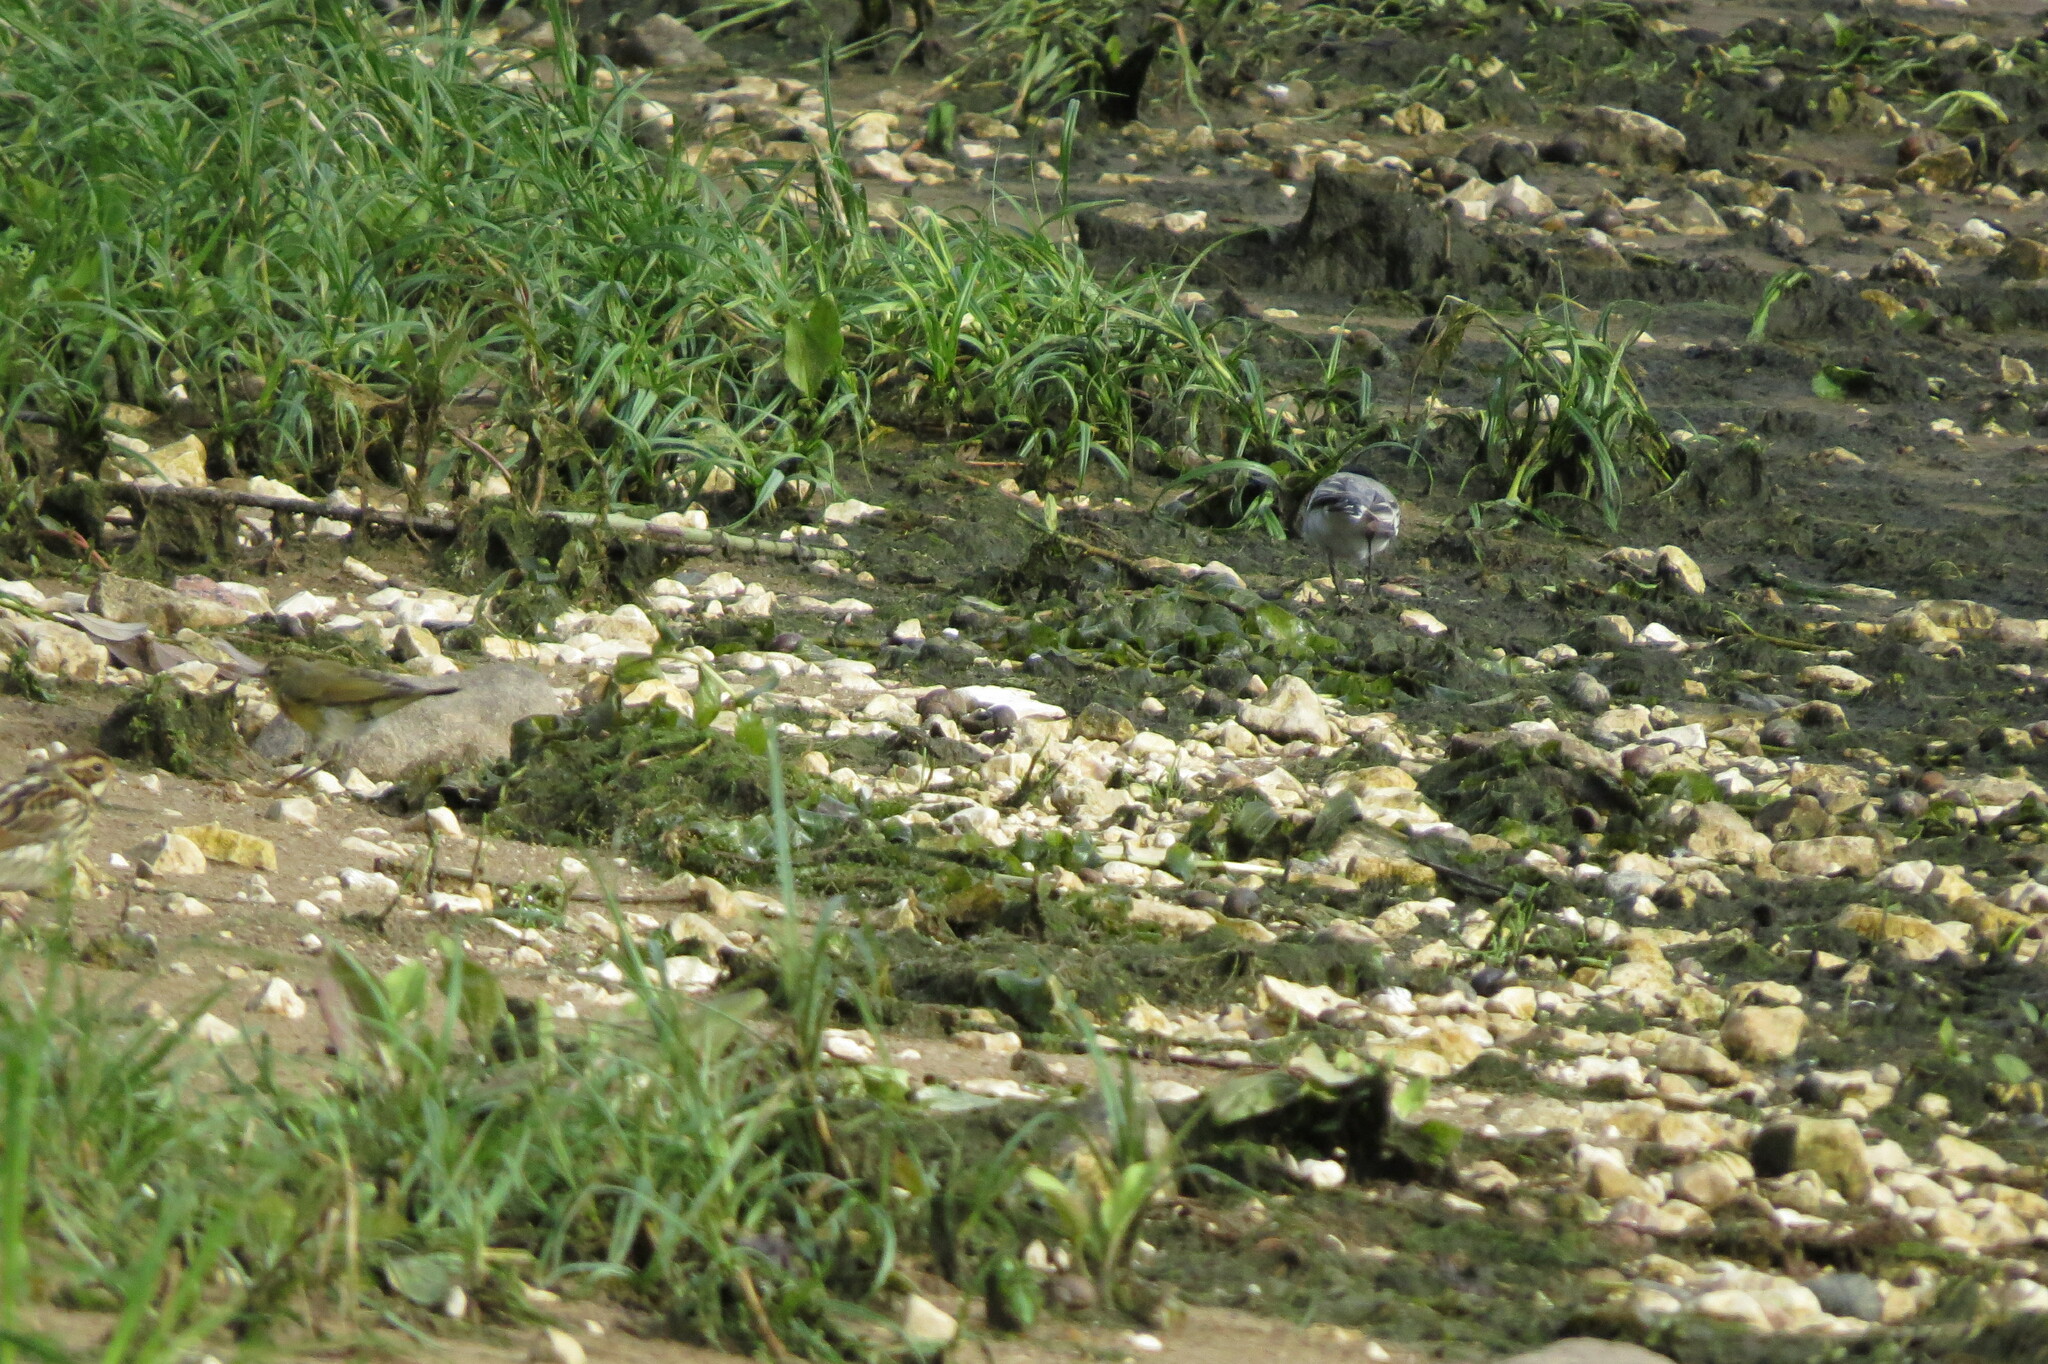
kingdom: Animalia
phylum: Chordata
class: Aves
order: Passeriformes
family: Motacillidae
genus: Motacilla
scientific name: Motacilla alba
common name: White wagtail
